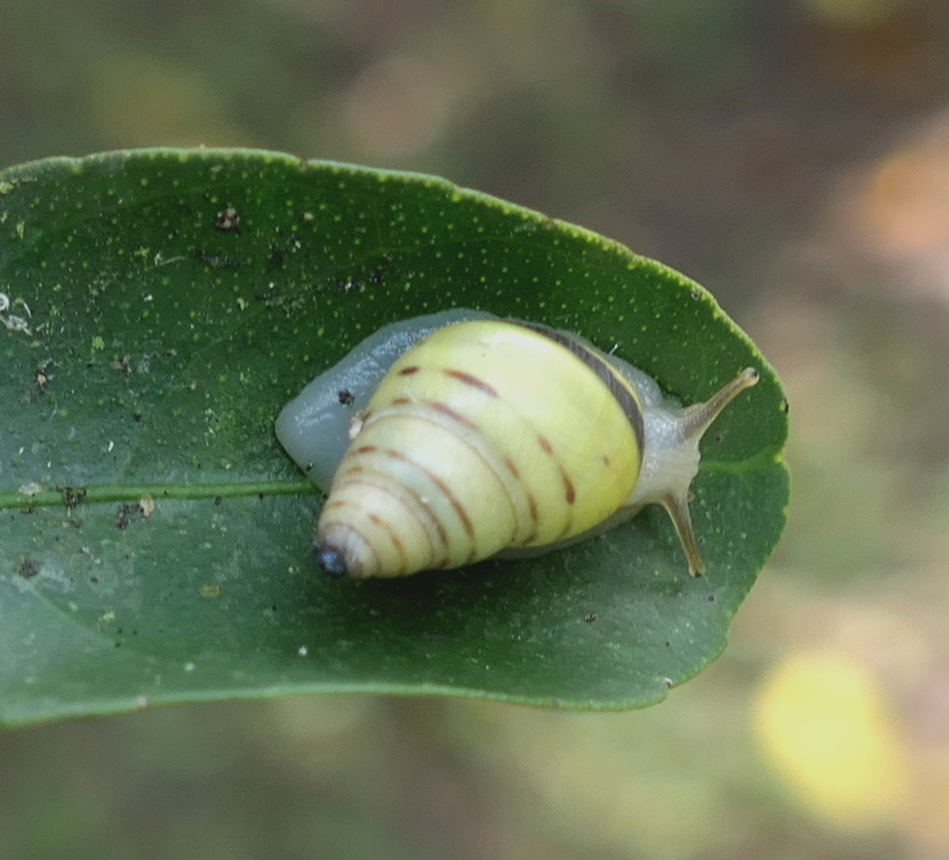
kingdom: Animalia
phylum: Mollusca
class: Gastropoda
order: Stylommatophora
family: Bulimulidae
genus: Drymaeus
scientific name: Drymaeus
